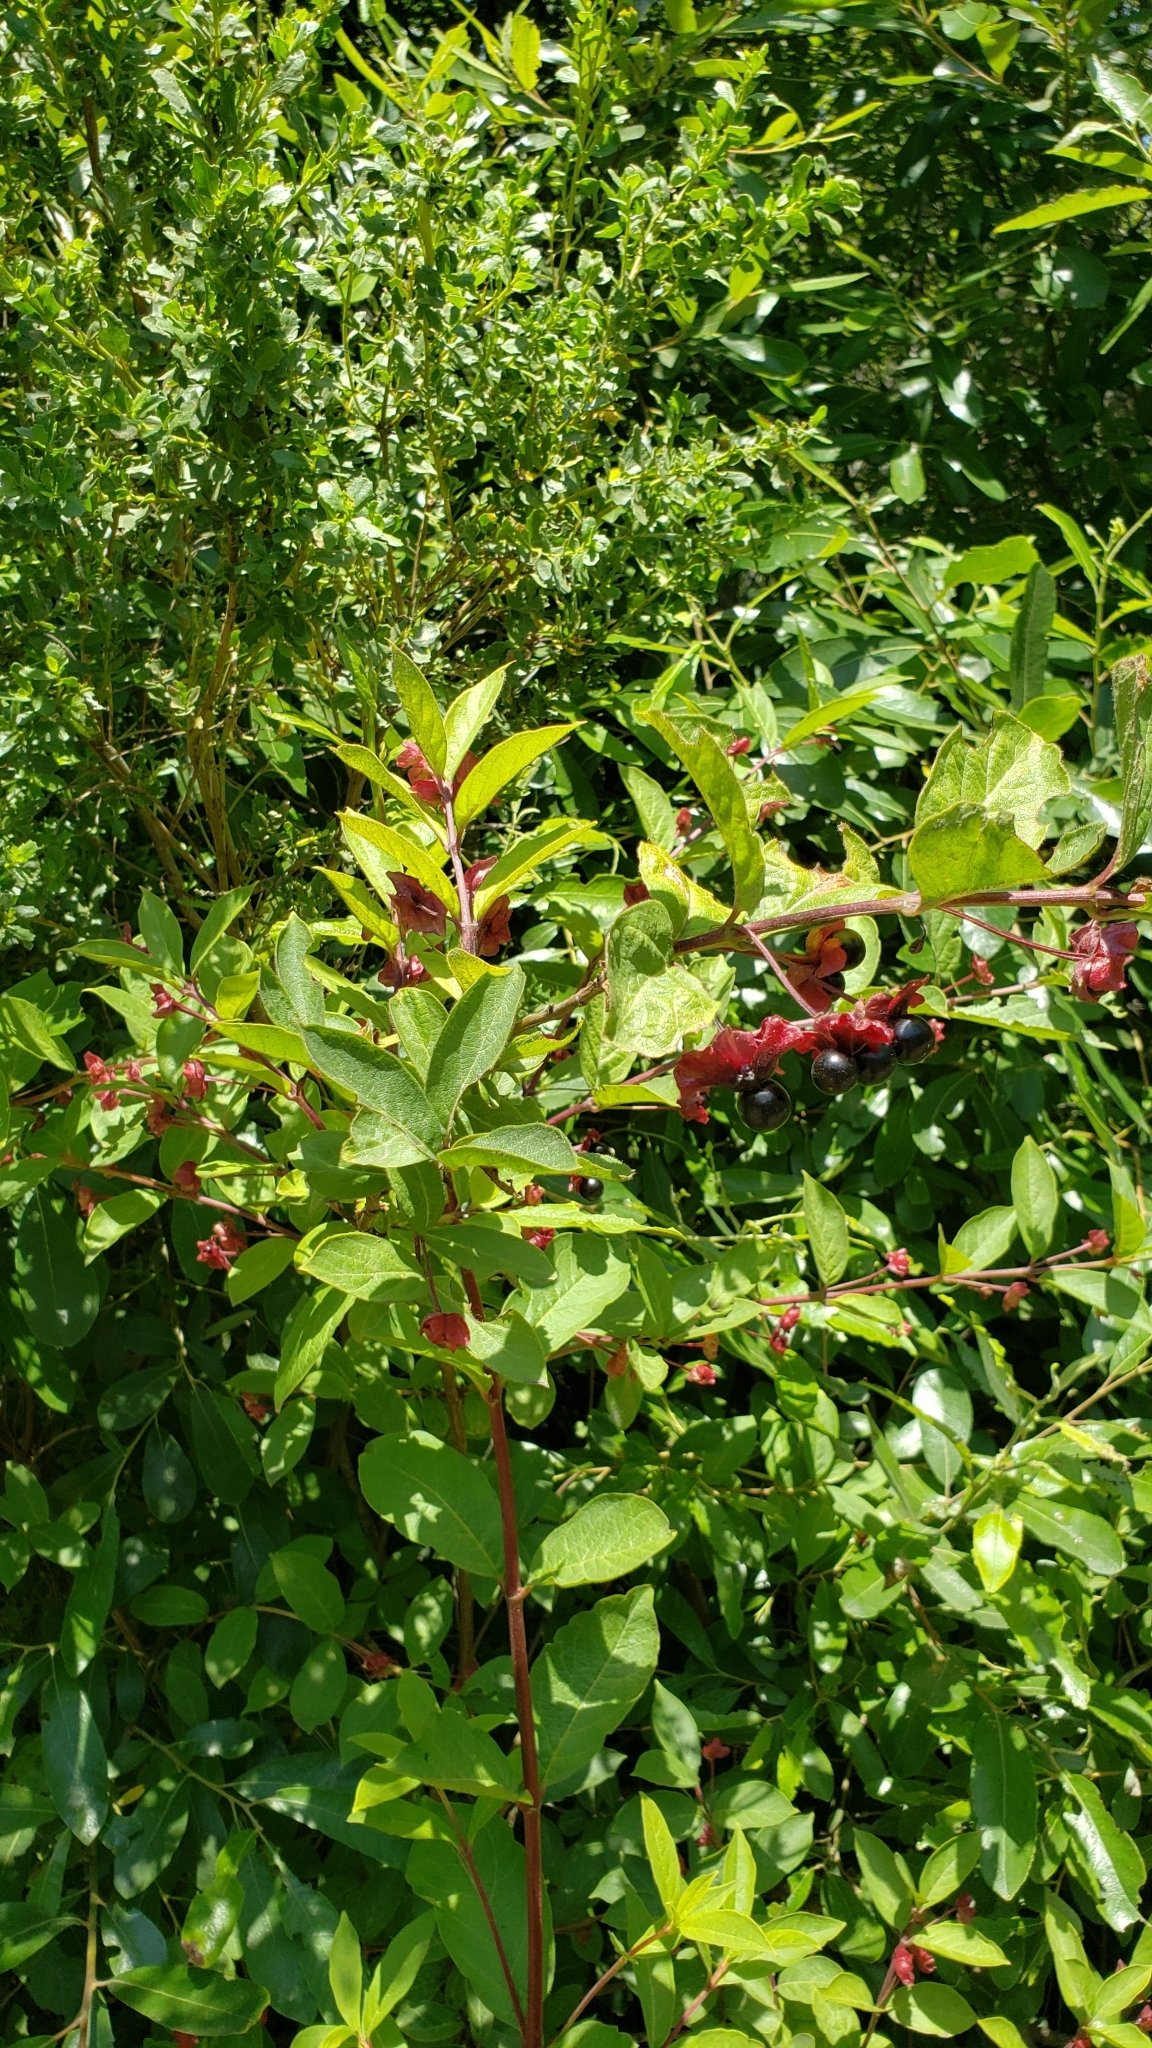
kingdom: Plantae
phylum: Tracheophyta
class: Magnoliopsida
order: Dipsacales
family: Caprifoliaceae
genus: Lonicera
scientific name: Lonicera involucrata
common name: Californian honeysuckle
